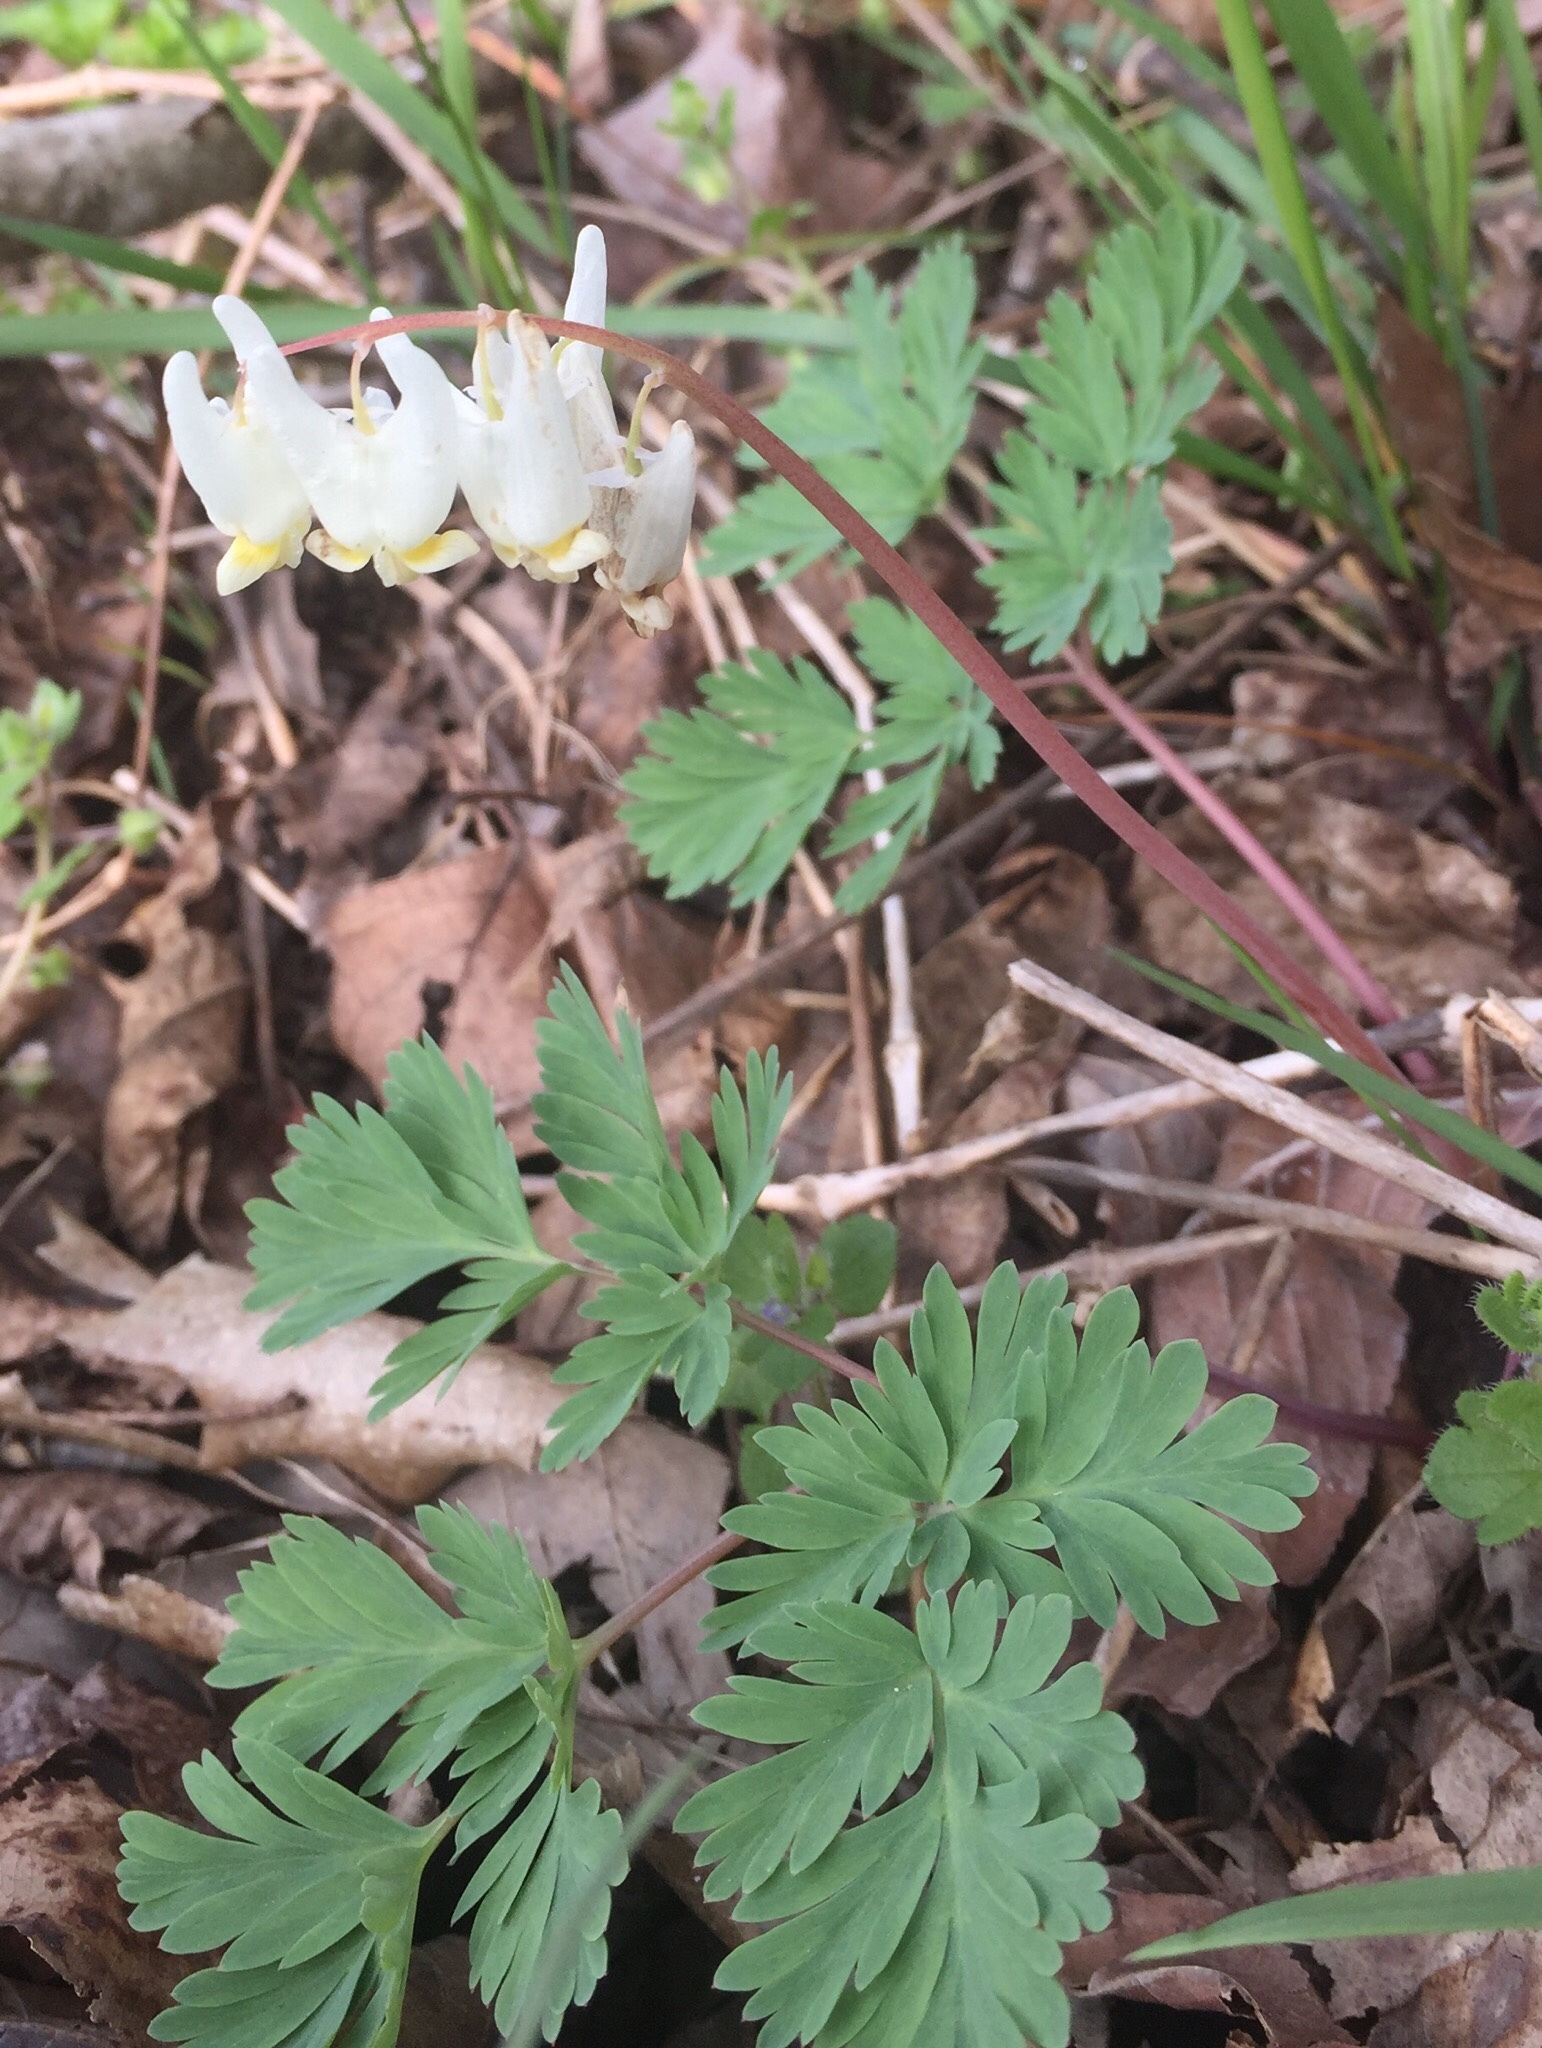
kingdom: Plantae
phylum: Tracheophyta
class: Magnoliopsida
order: Ranunculales
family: Papaveraceae
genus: Dicentra
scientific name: Dicentra cucullaria
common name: Dutchman's breeches
